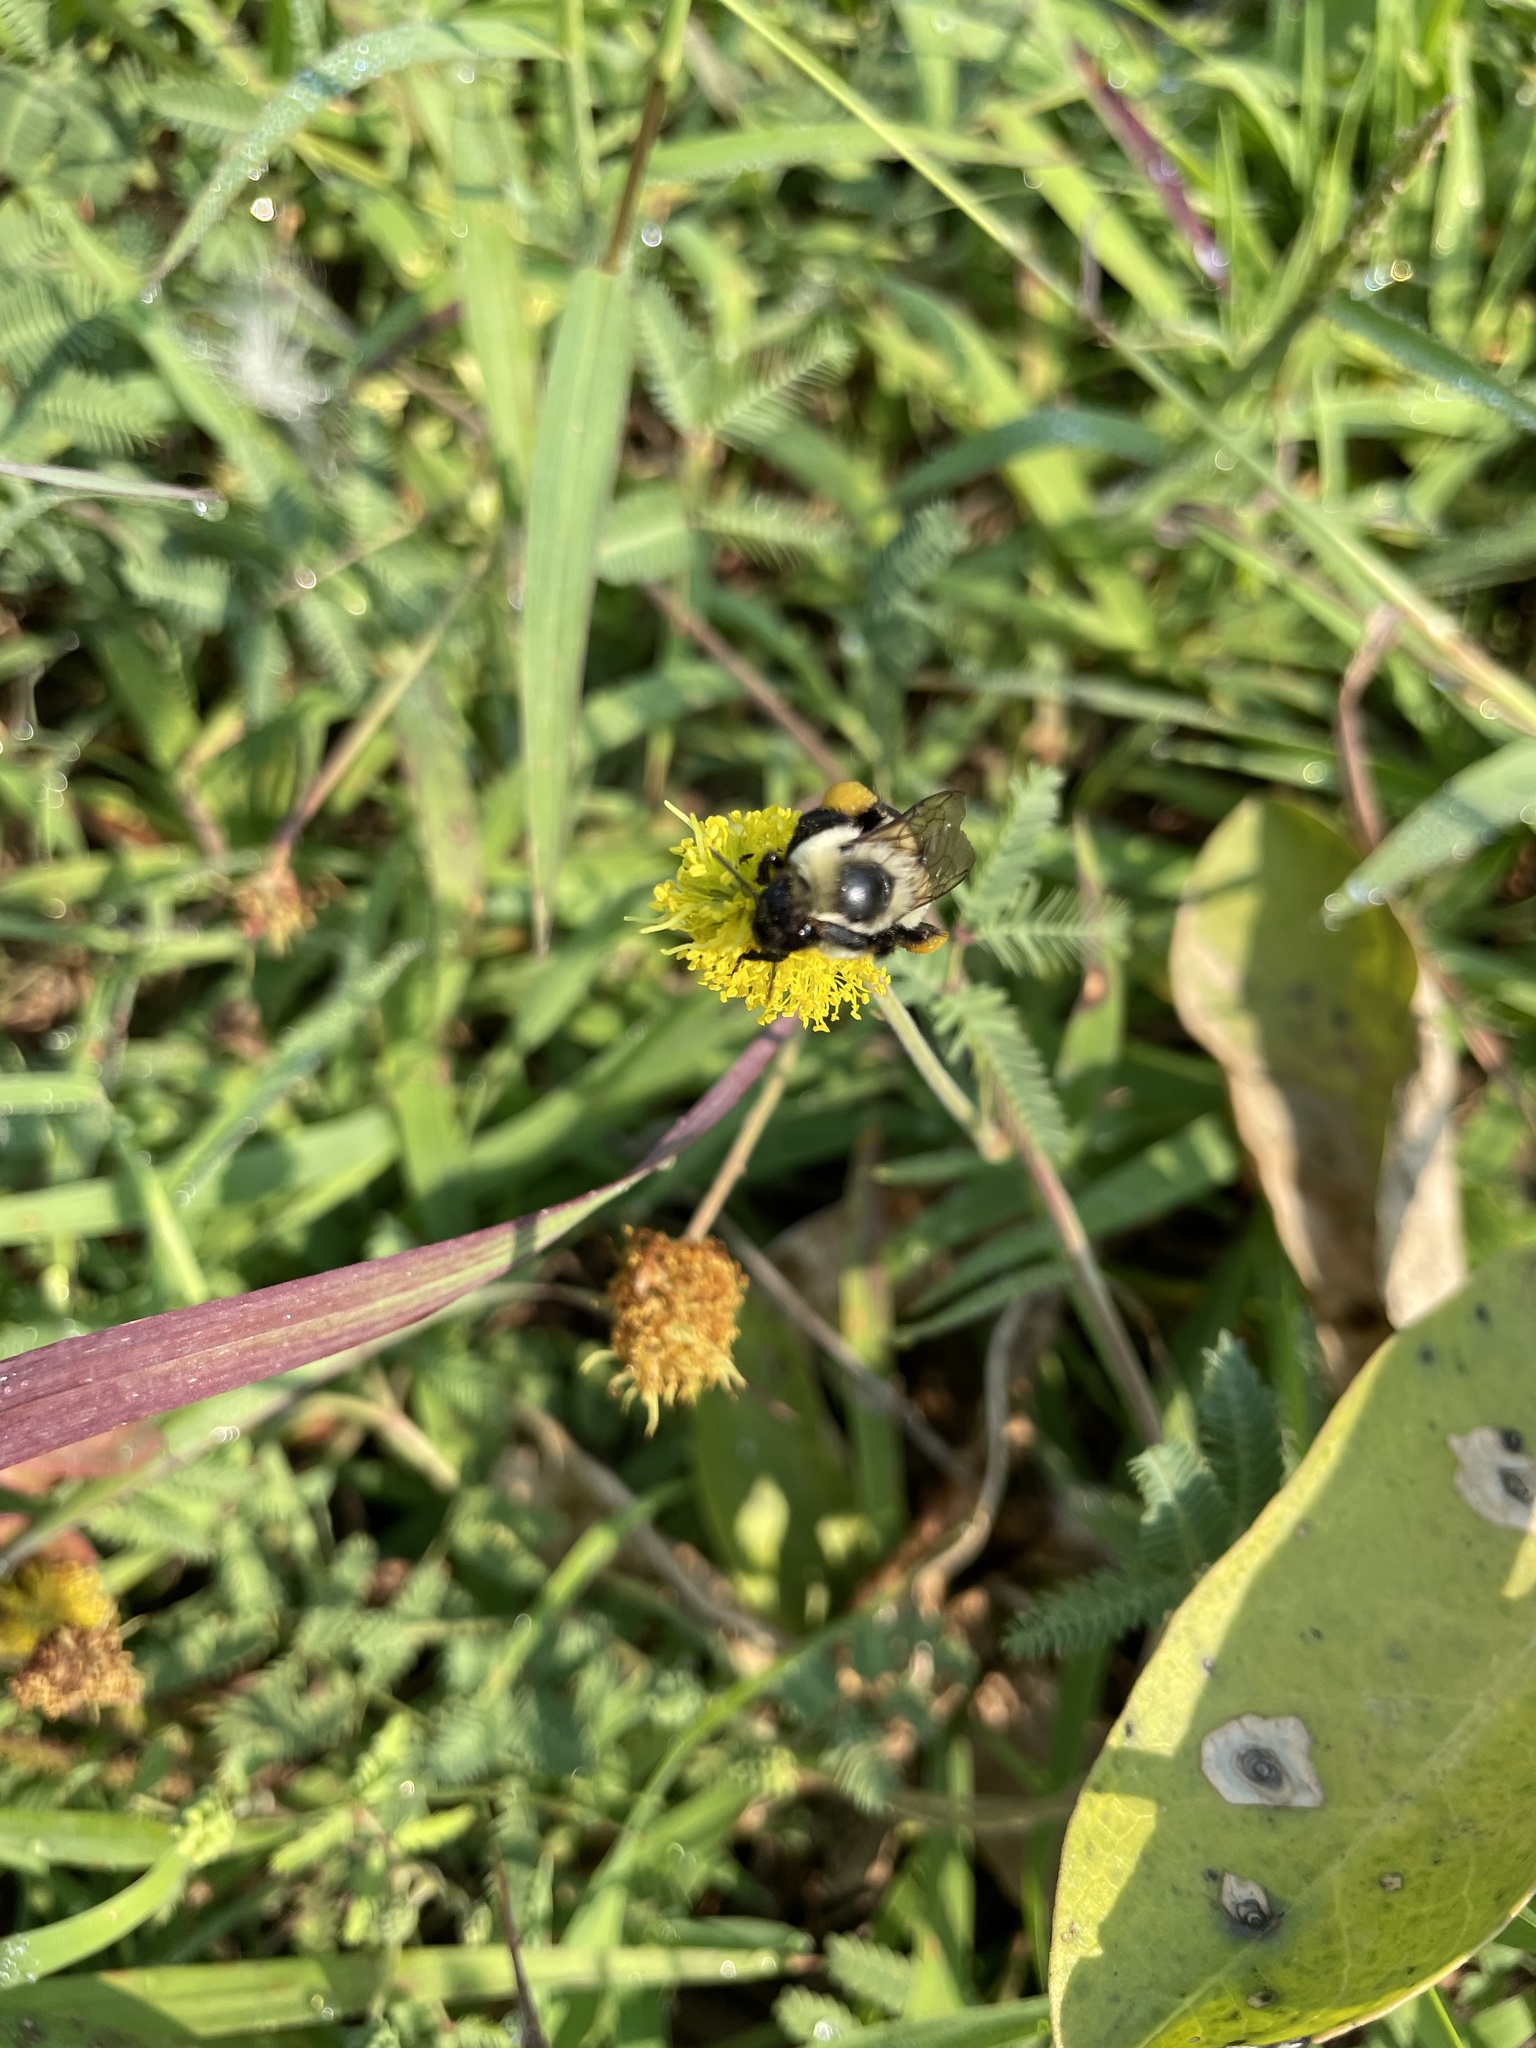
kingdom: Animalia
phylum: Arthropoda
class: Insecta
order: Hymenoptera
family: Apidae
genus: Bombus
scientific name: Bombus impatiens
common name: Common eastern bumble bee
